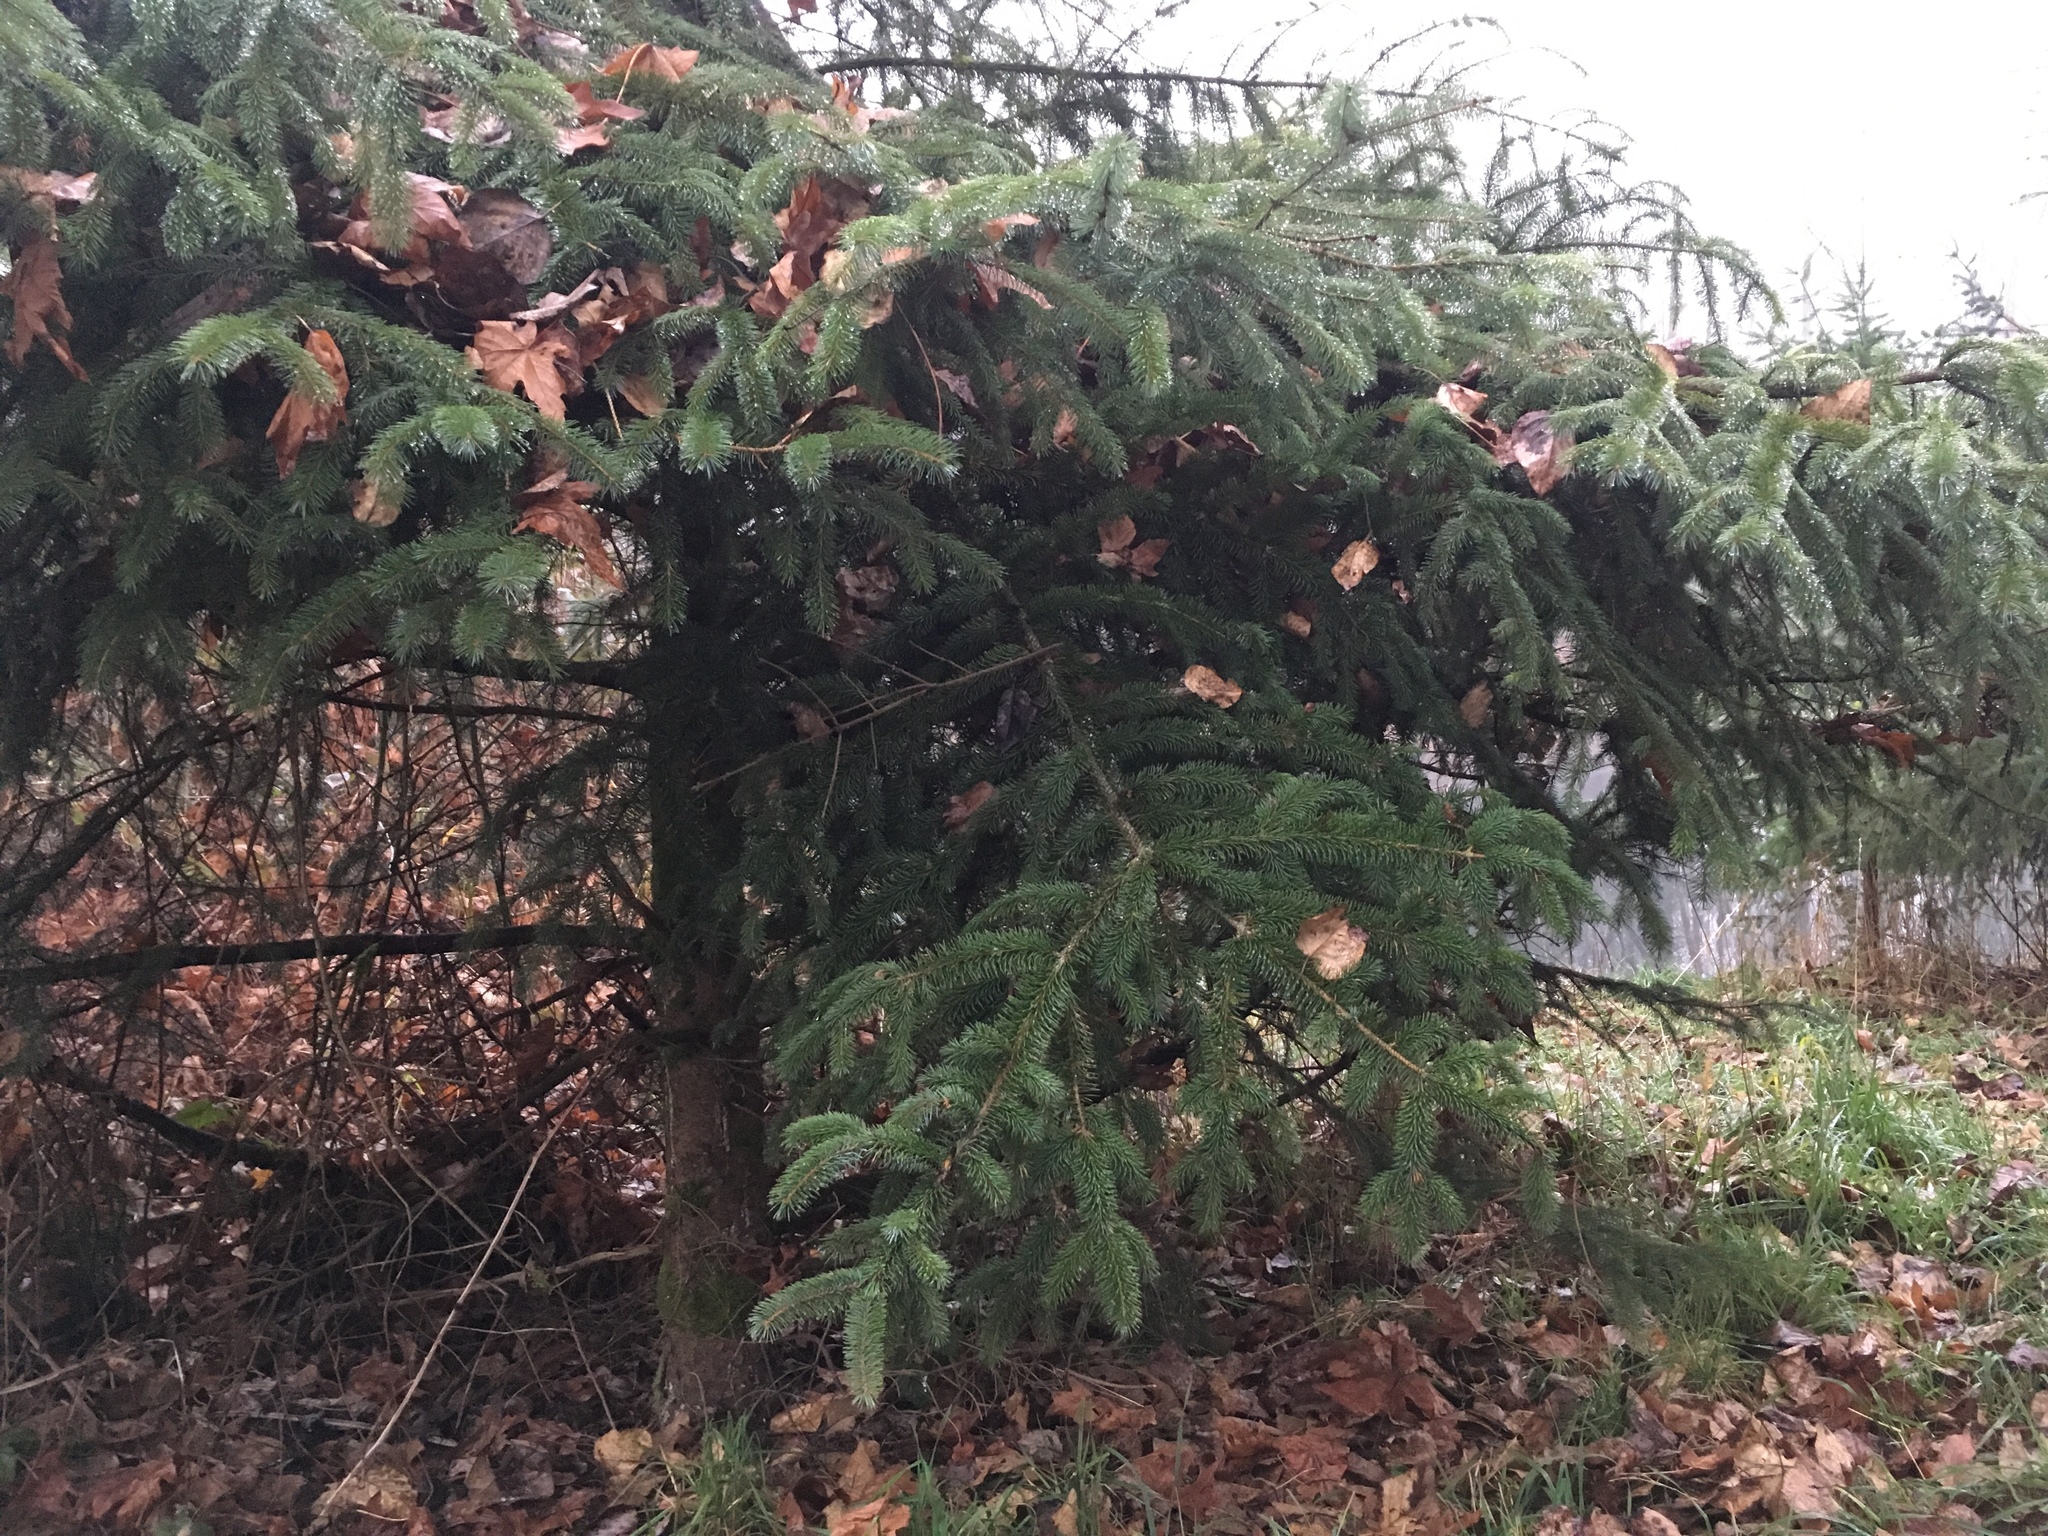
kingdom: Plantae
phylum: Tracheophyta
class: Pinopsida
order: Pinales
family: Pinaceae
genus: Picea
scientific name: Picea sitchensis
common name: Sitka spruce
